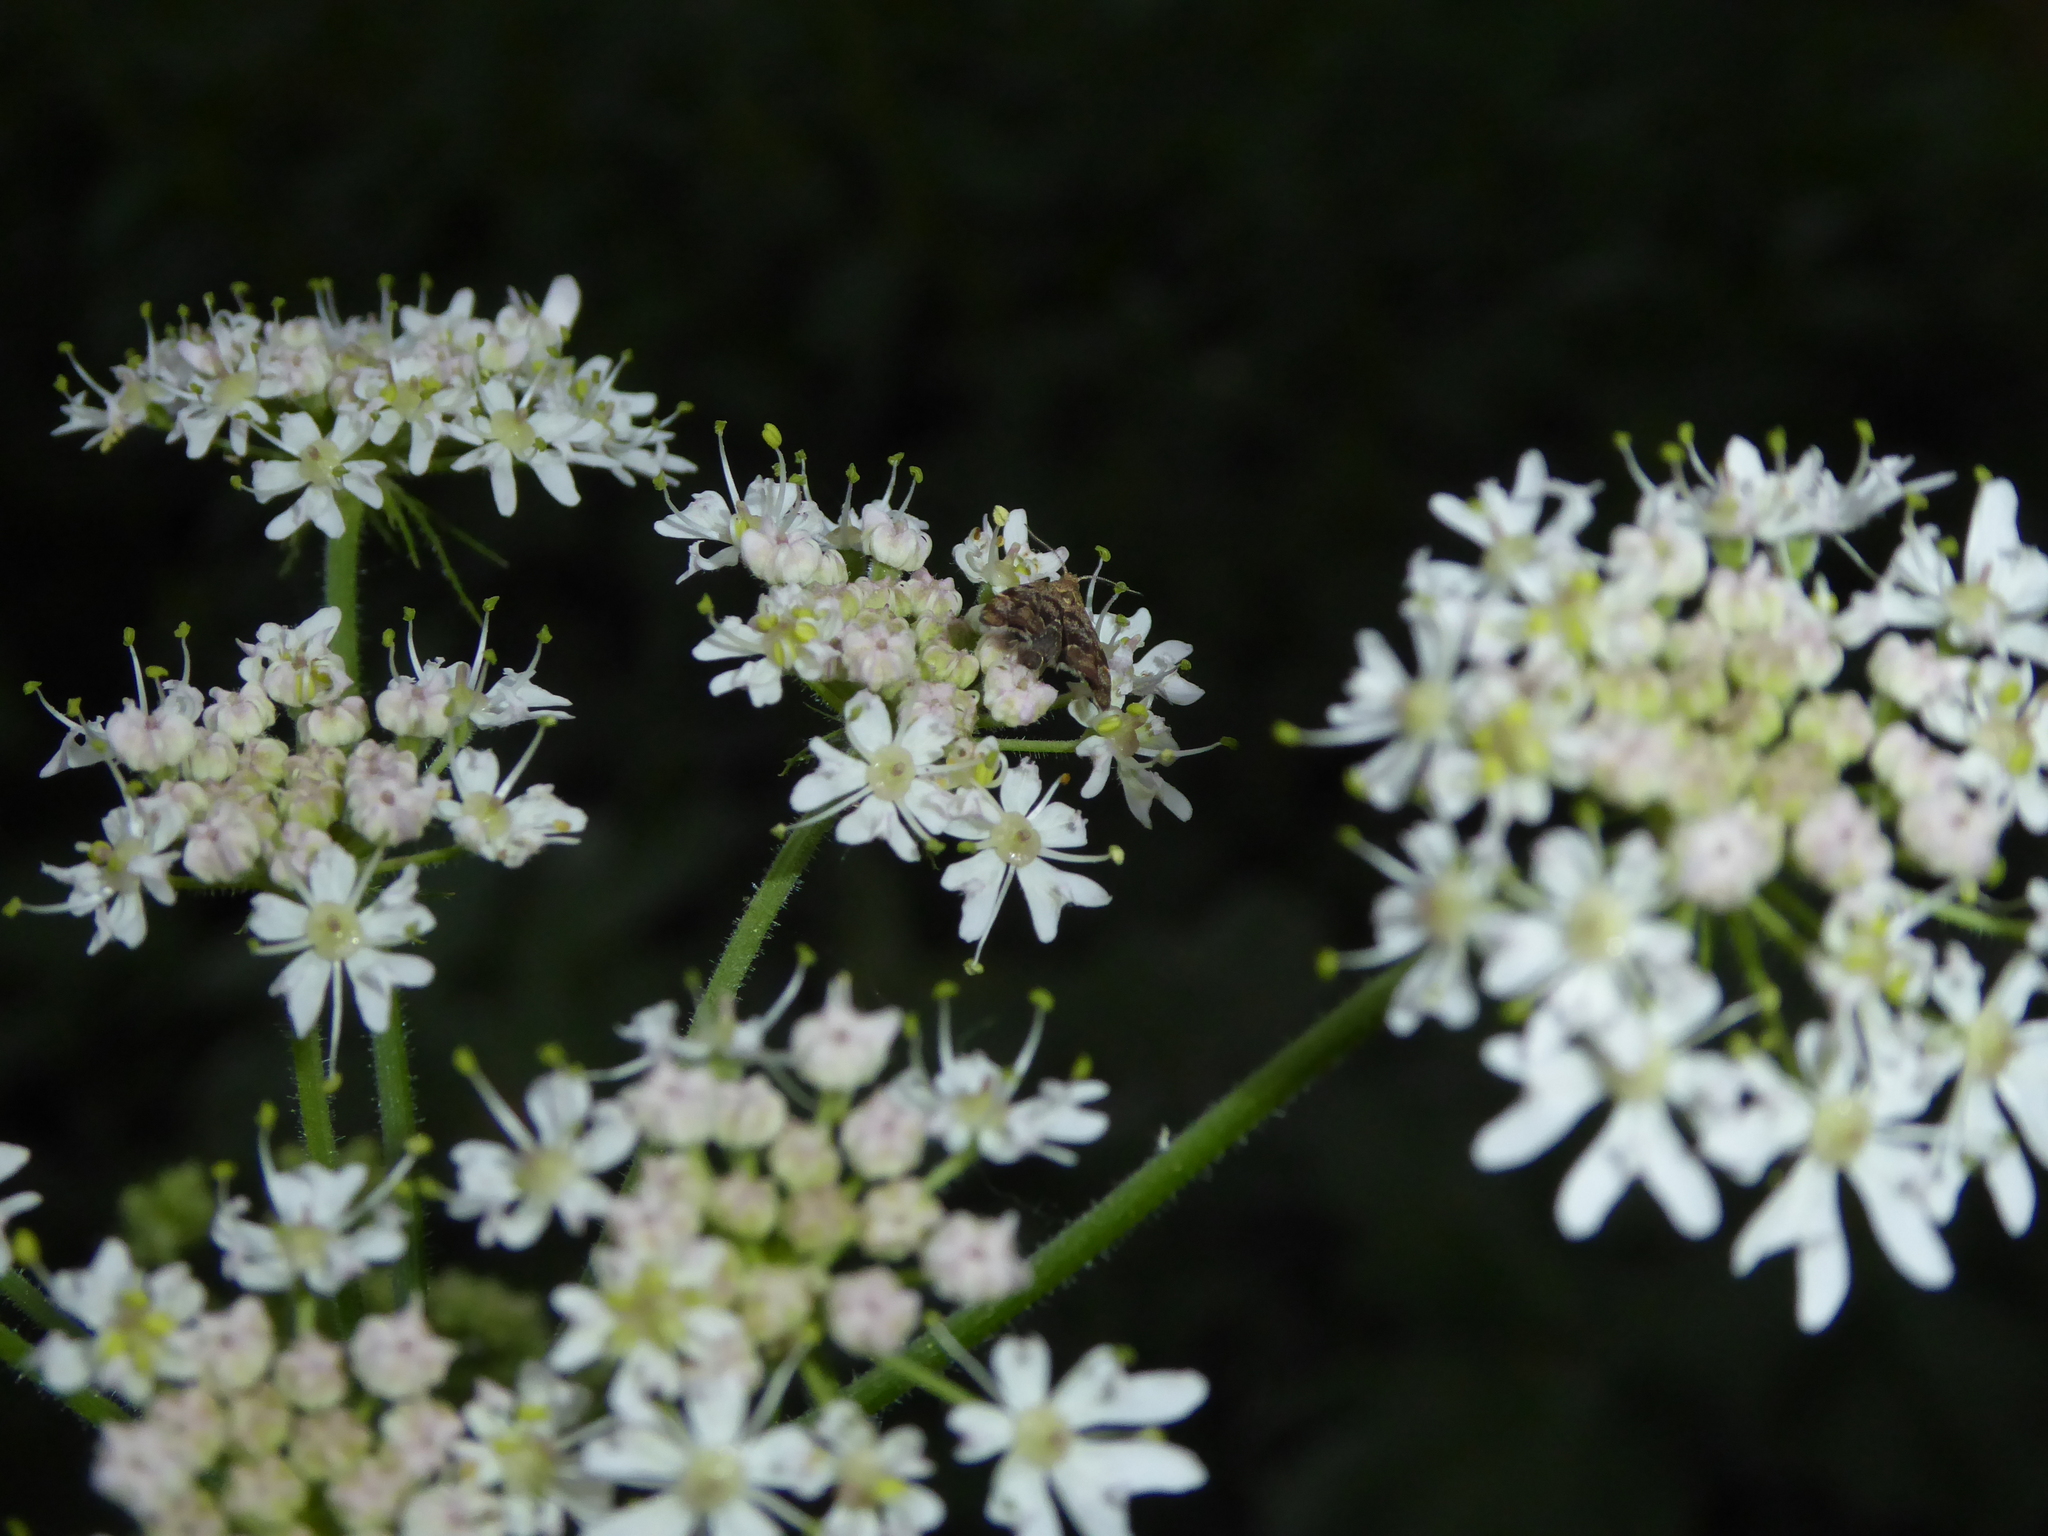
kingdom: Animalia
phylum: Arthropoda
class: Insecta
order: Lepidoptera
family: Choreutidae
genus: Anthophila
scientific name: Anthophila fabriciana
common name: Nettle-tap
